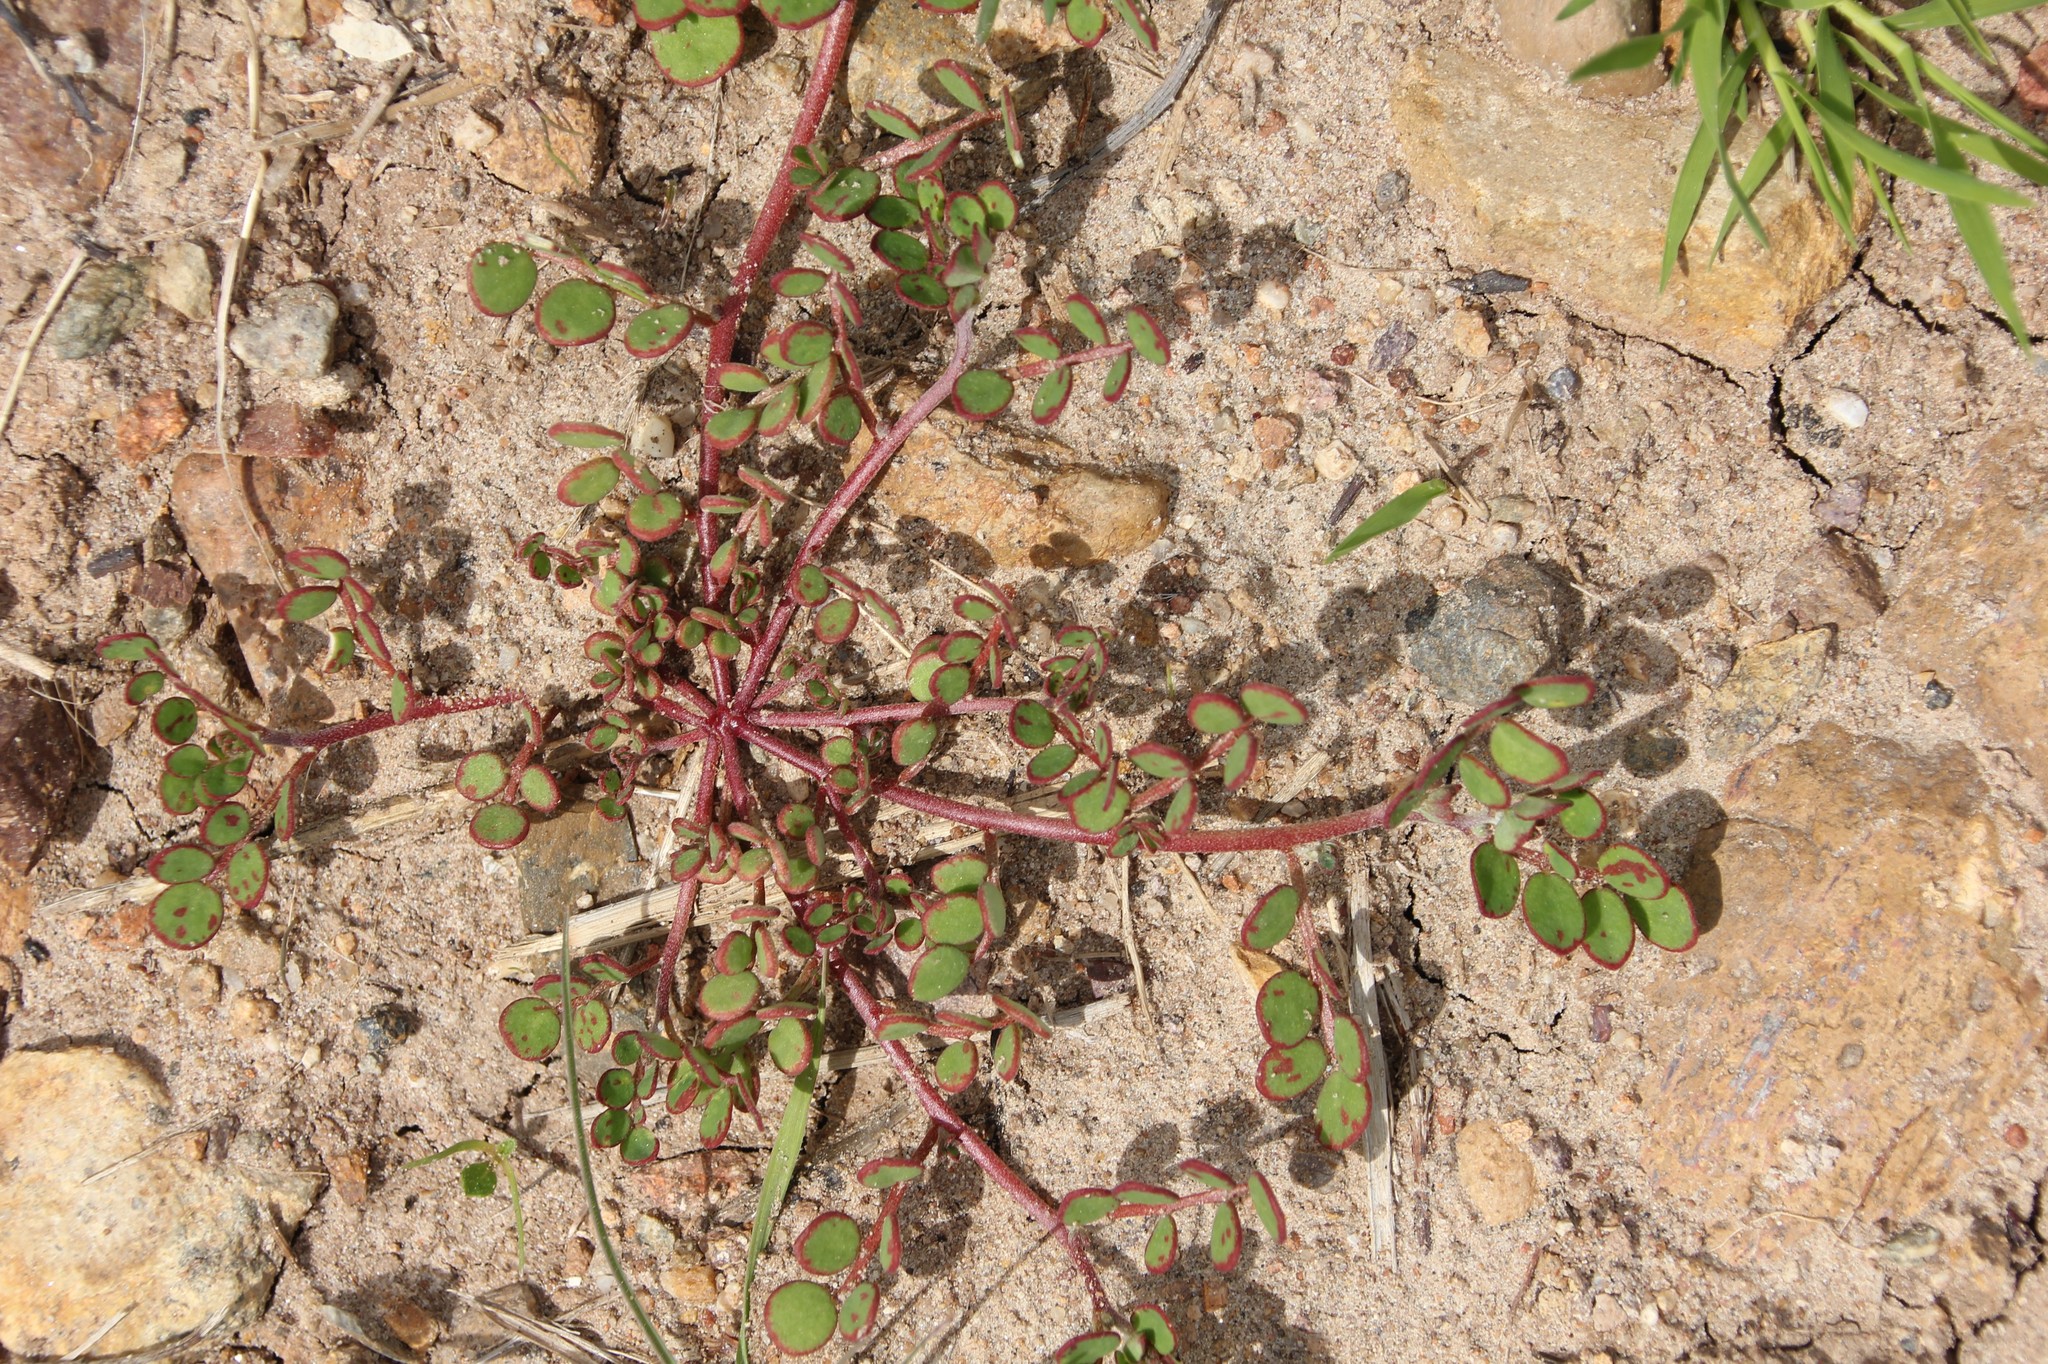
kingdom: Plantae
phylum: Tracheophyta
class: Magnoliopsida
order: Fabales
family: Fabaceae
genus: Acmispon
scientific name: Acmispon maritimus
